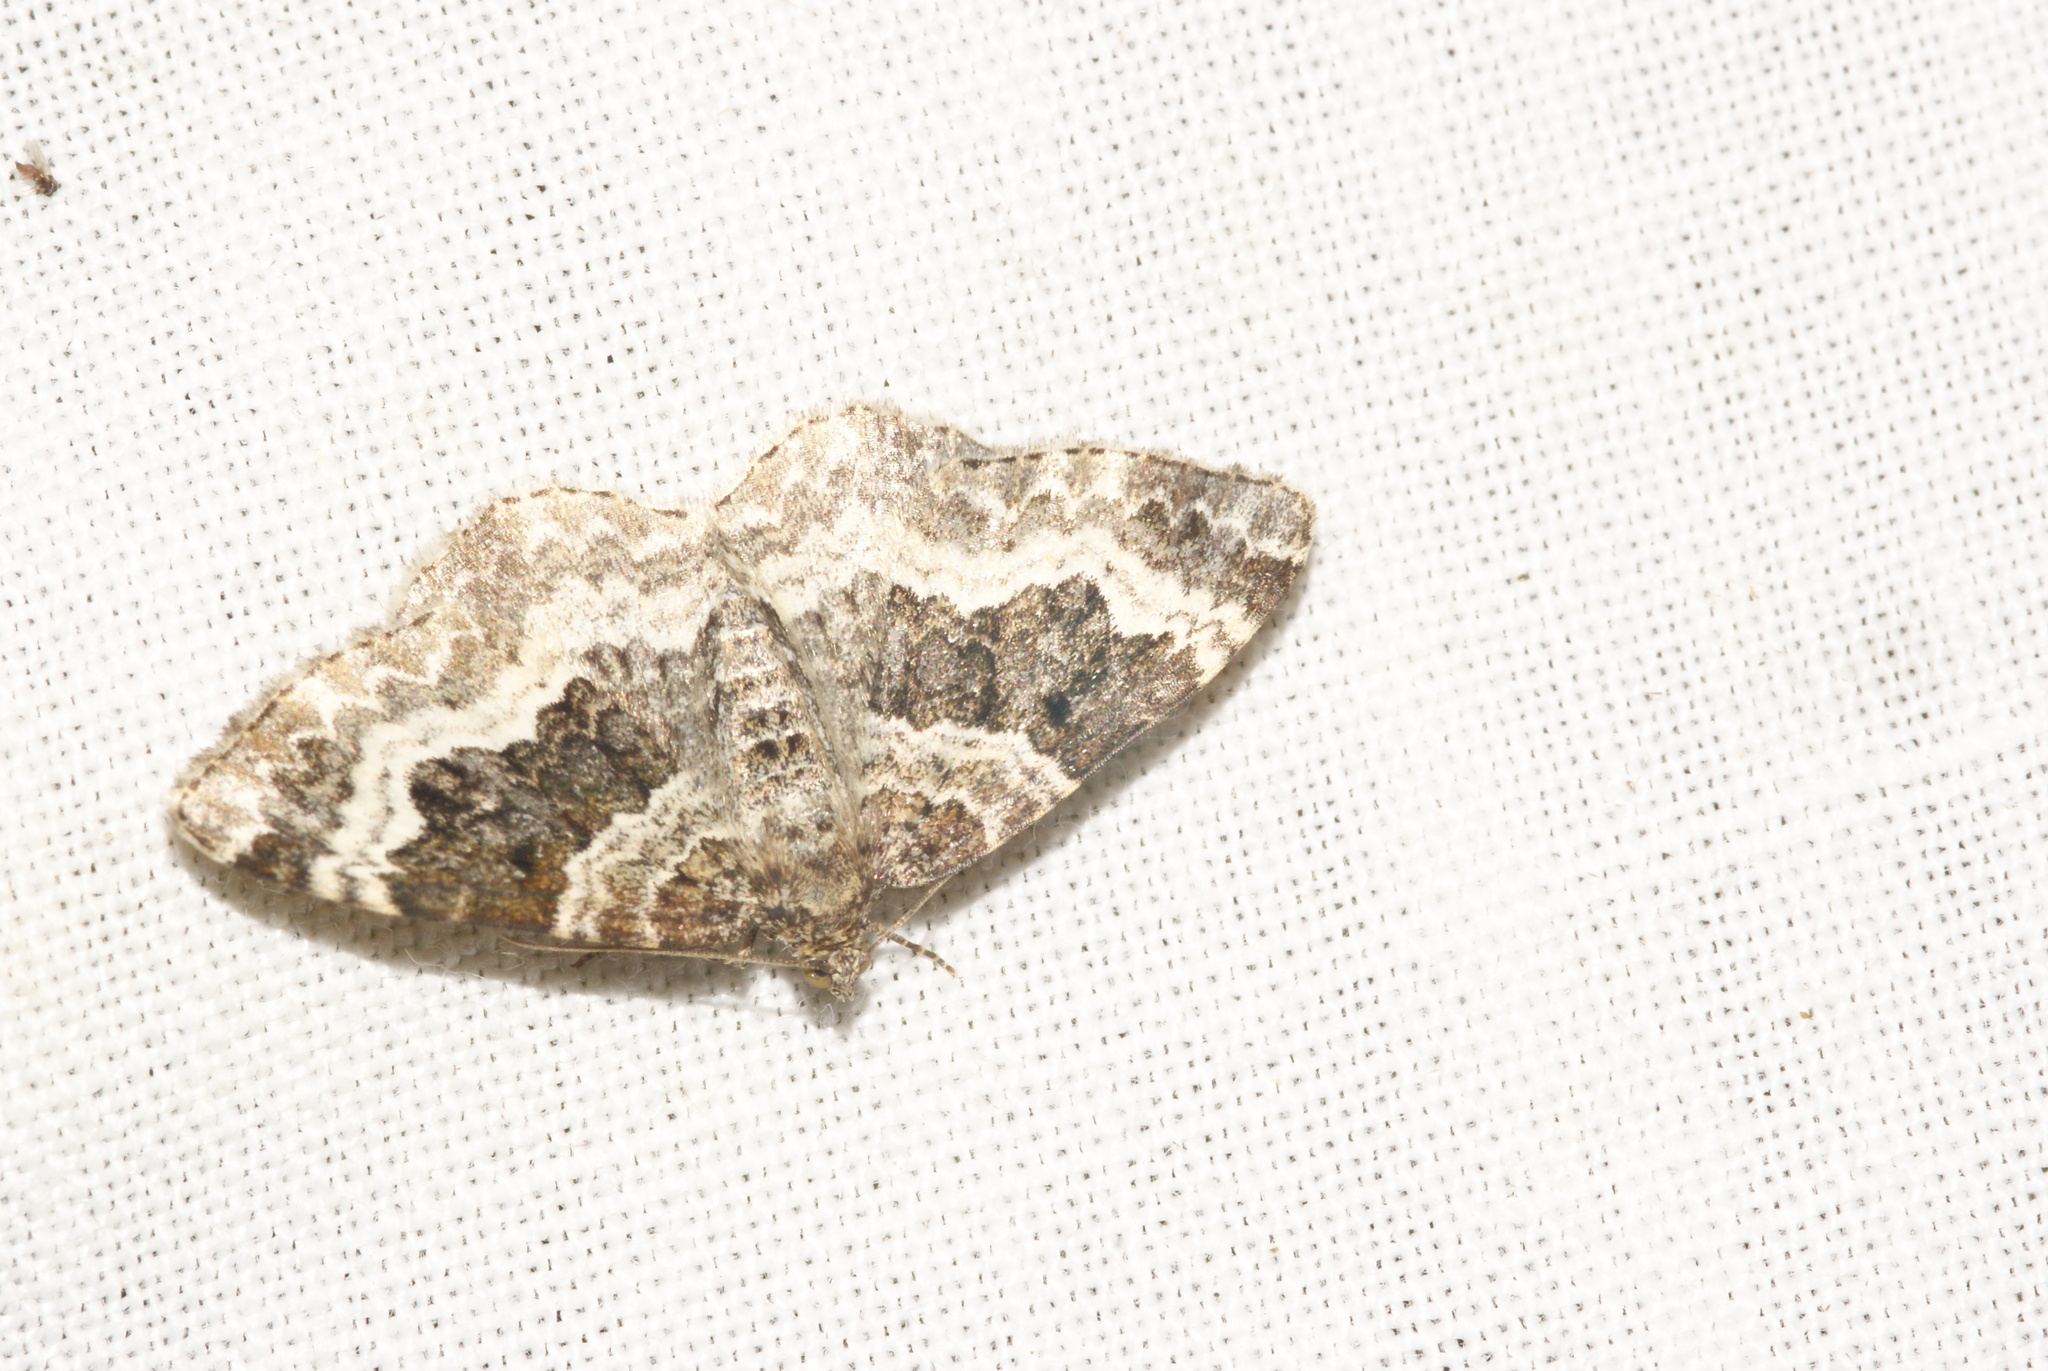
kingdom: Animalia
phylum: Arthropoda
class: Insecta
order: Lepidoptera
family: Geometridae
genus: Epirrhoe
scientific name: Epirrhoe alternata
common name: Common carpet
